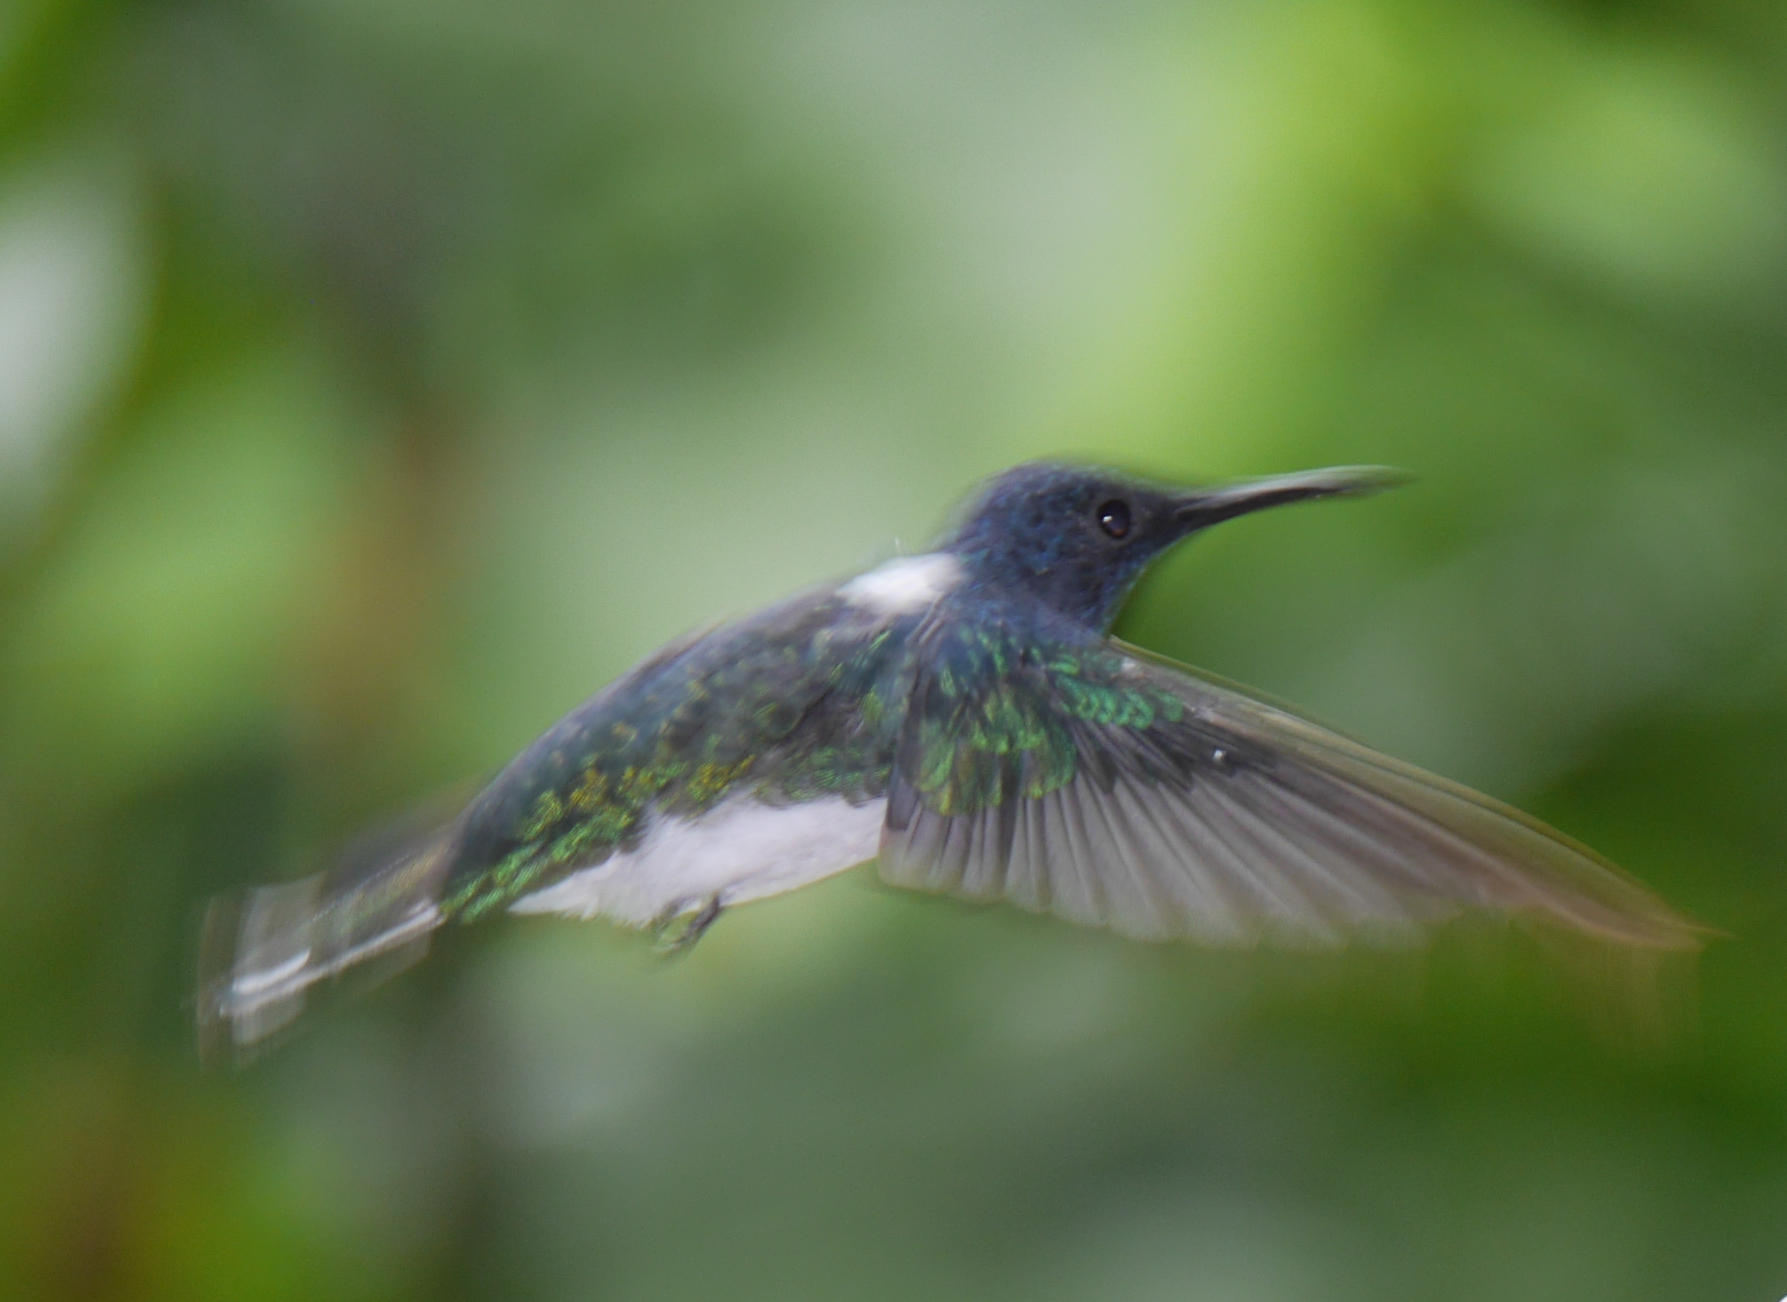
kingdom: Animalia
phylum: Chordata
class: Aves
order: Apodiformes
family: Trochilidae
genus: Florisuga
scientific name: Florisuga mellivora
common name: White-necked jacobin
